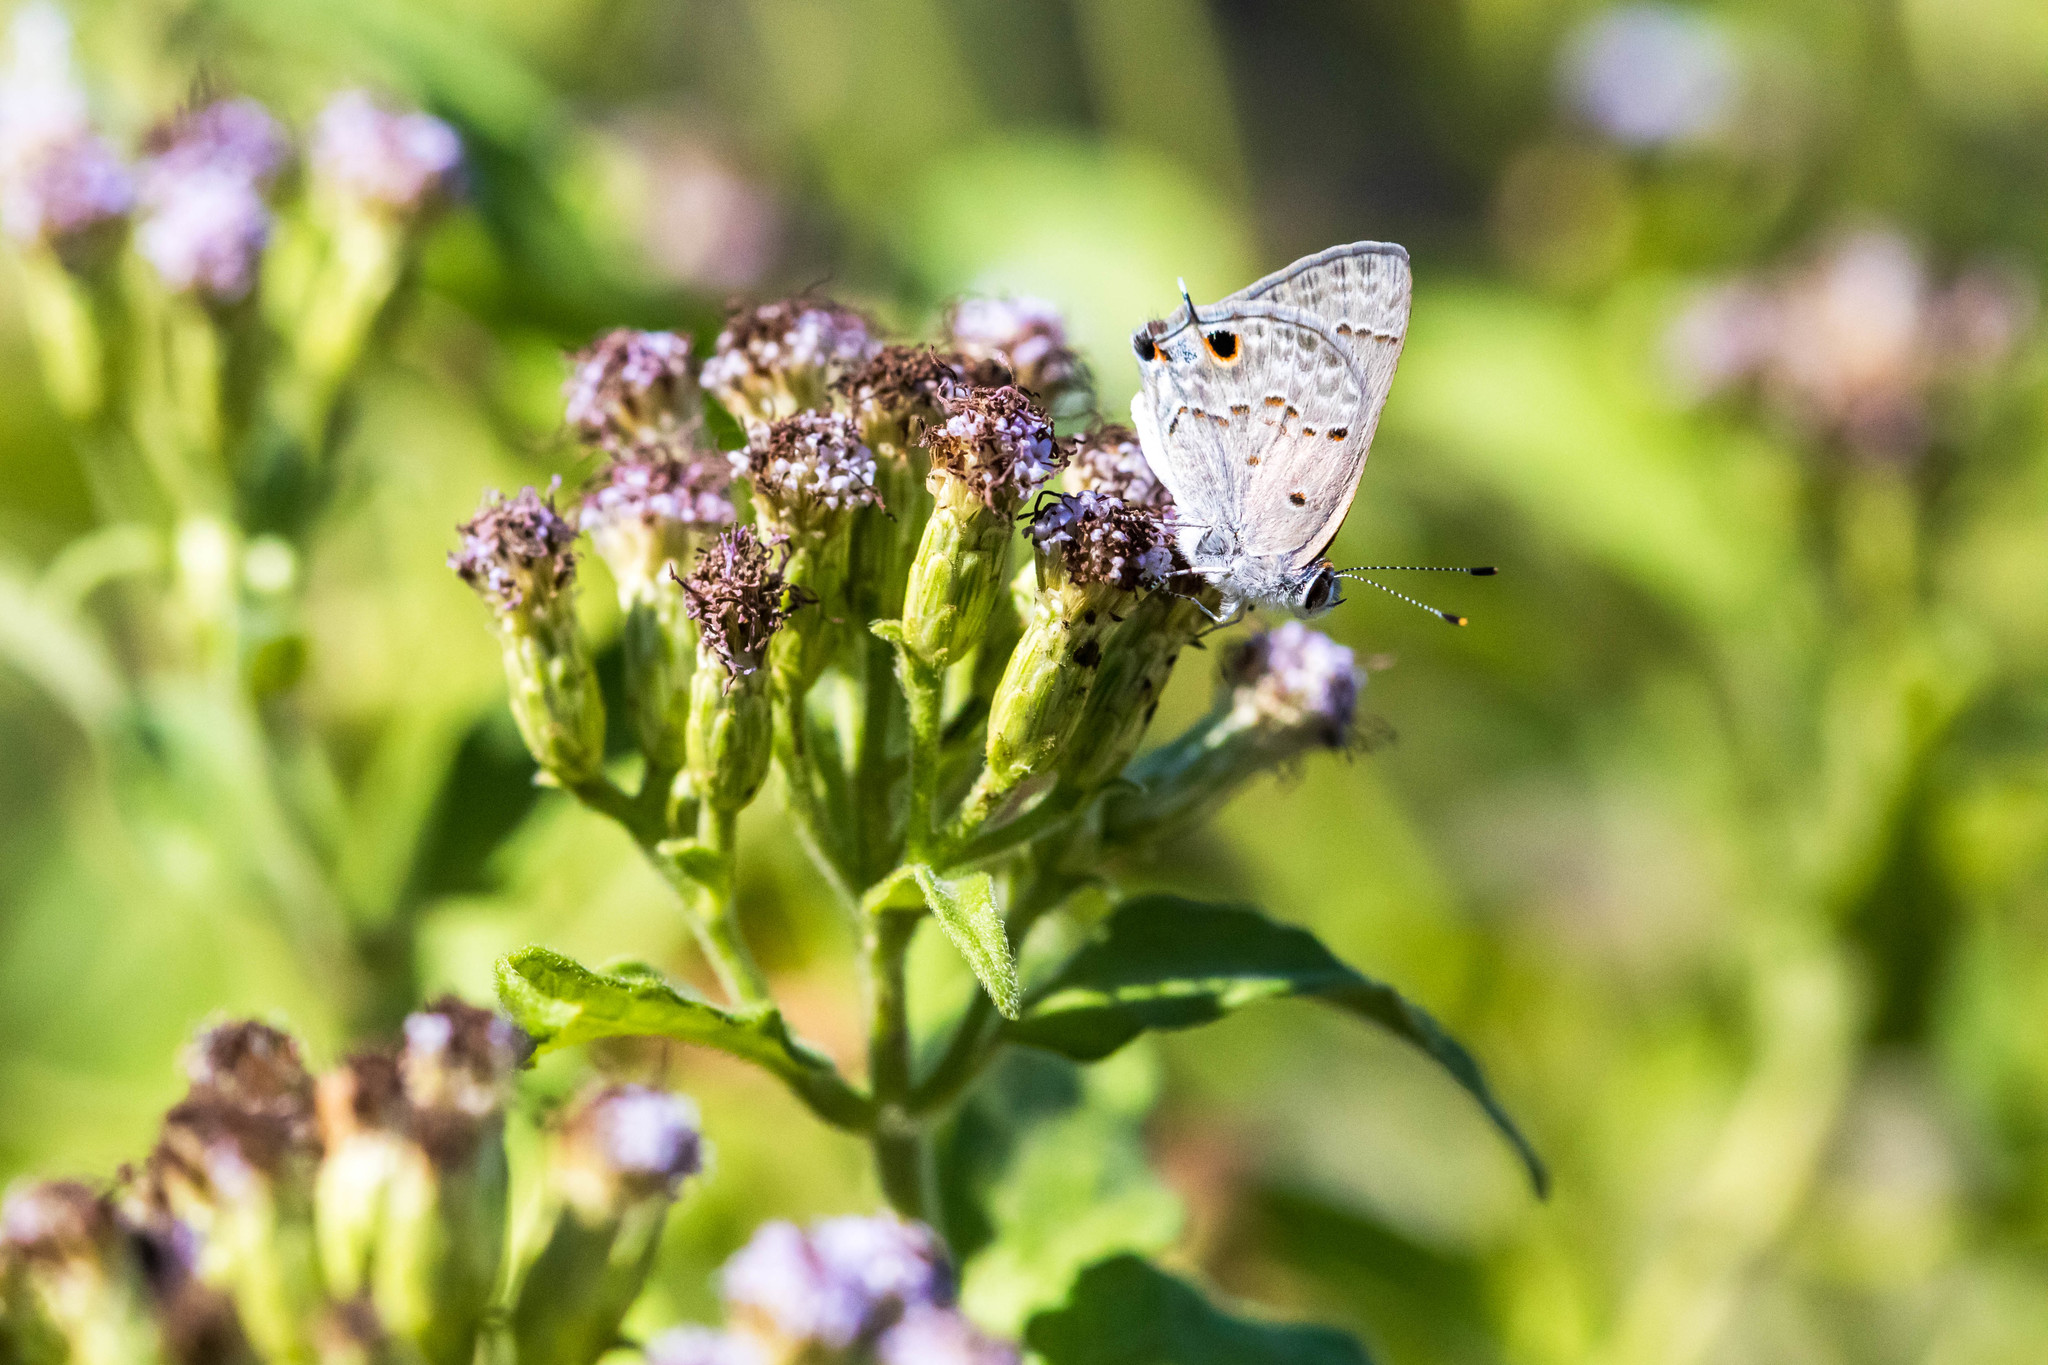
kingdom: Animalia
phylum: Arthropoda
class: Insecta
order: Lepidoptera
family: Lycaenidae
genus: Callicista
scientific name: Callicista columella
